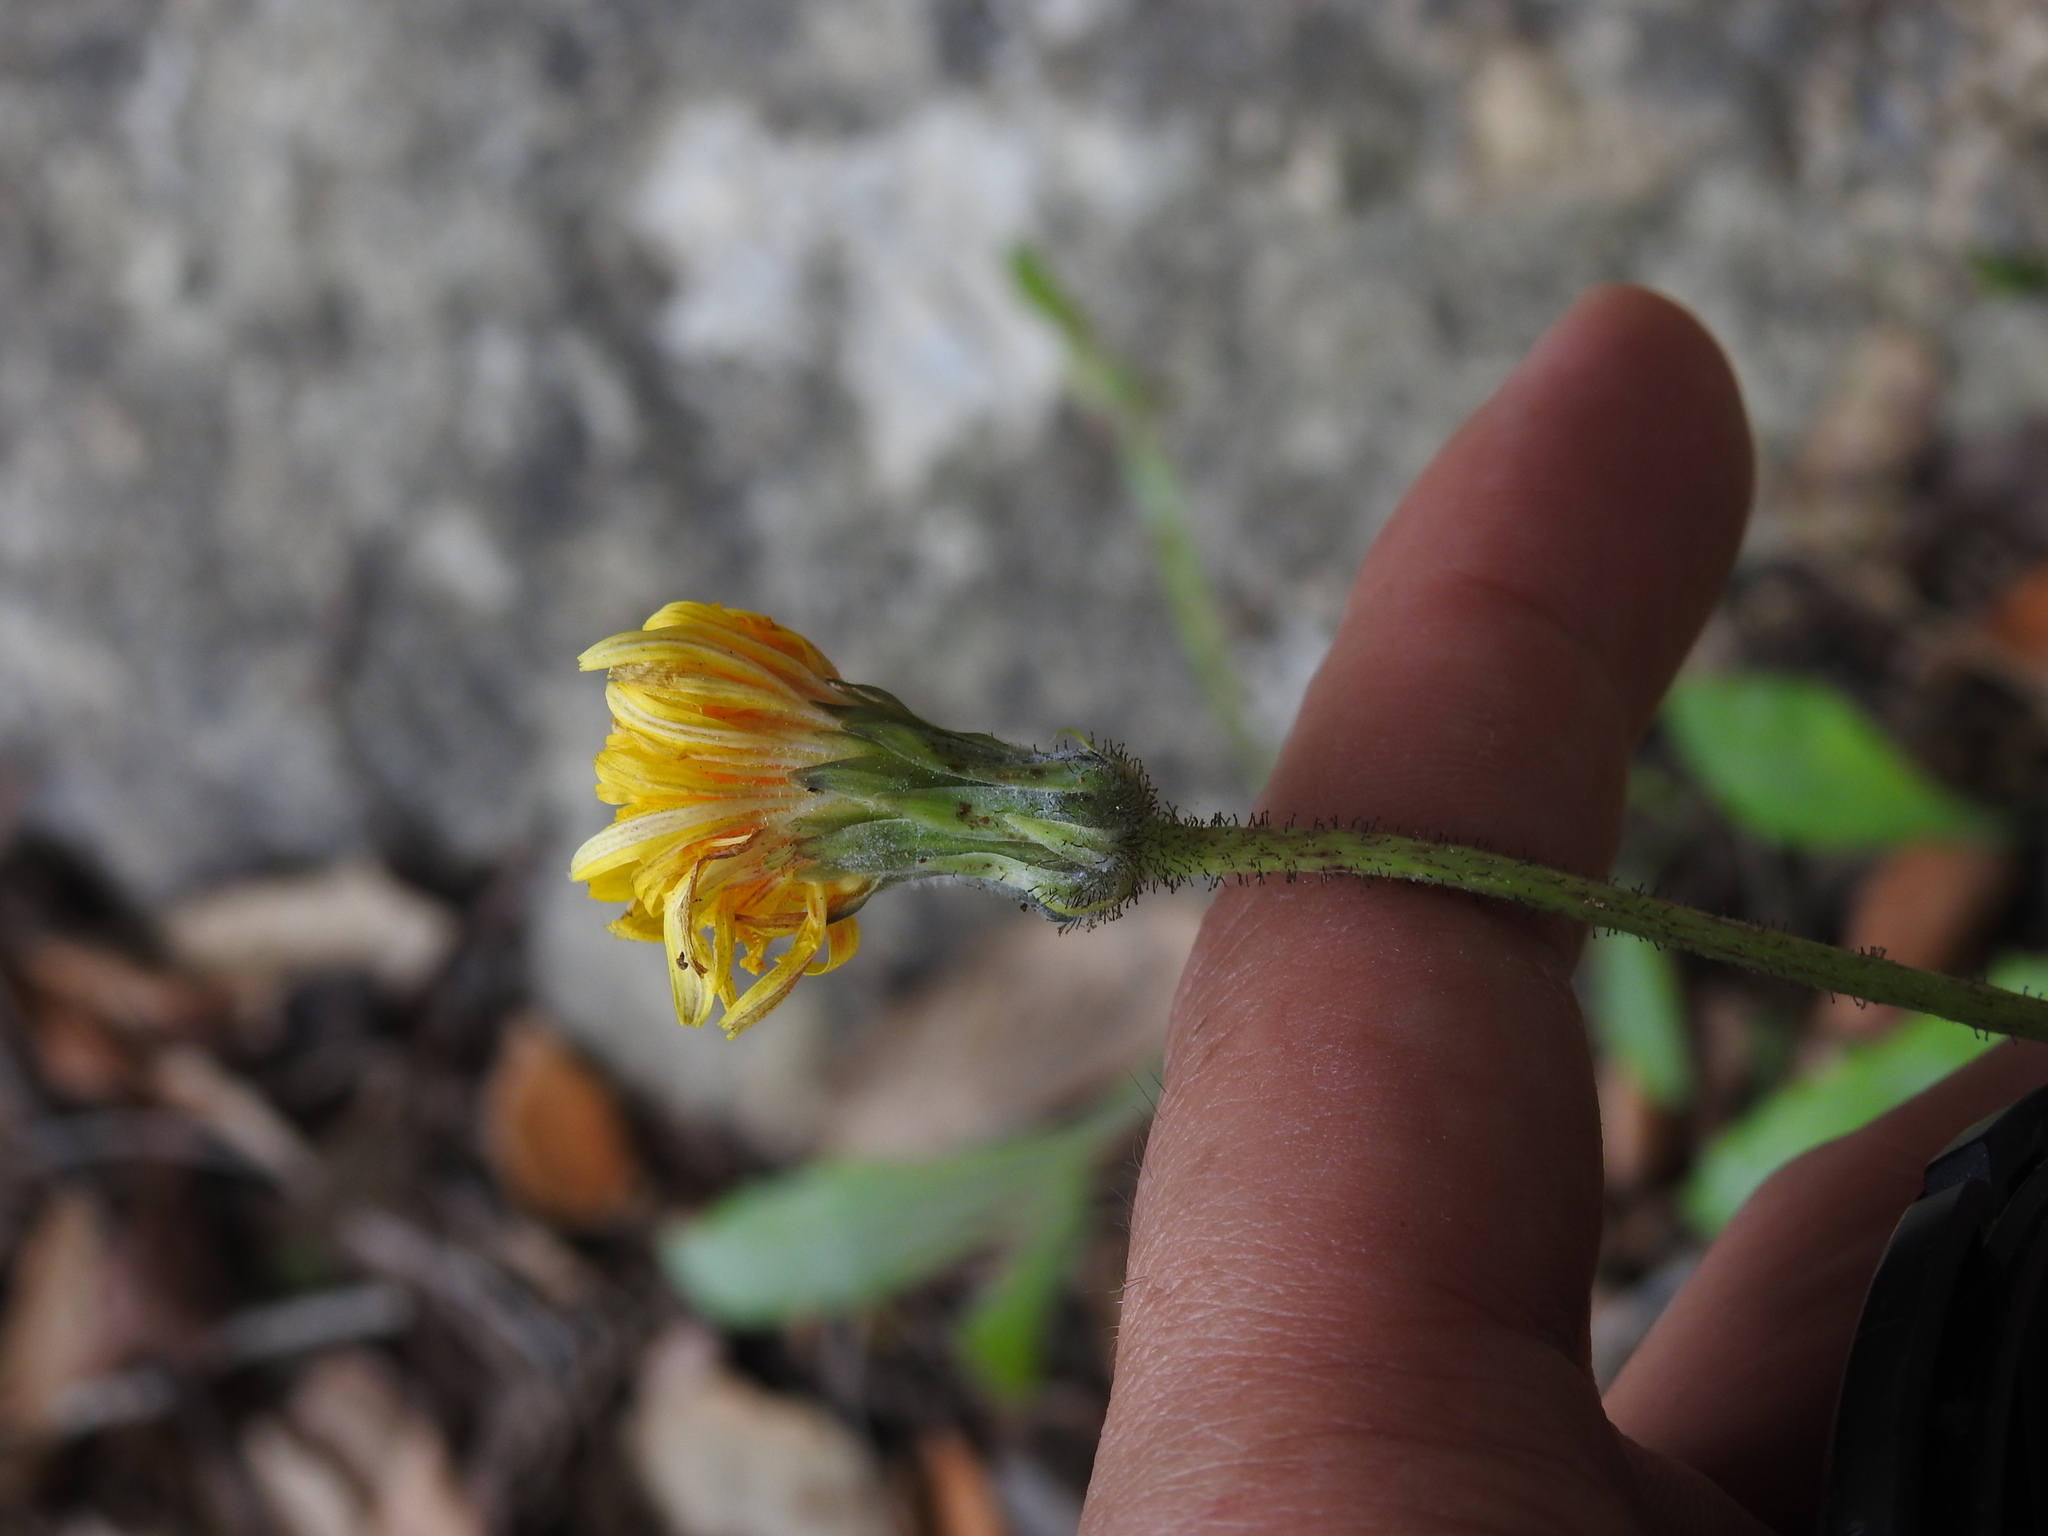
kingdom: Plantae
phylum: Tracheophyta
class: Magnoliopsida
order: Asterales
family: Asteraceae
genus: Aetheorhiza
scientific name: Aetheorhiza bulbosa
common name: Tuberous hawk's-beard
